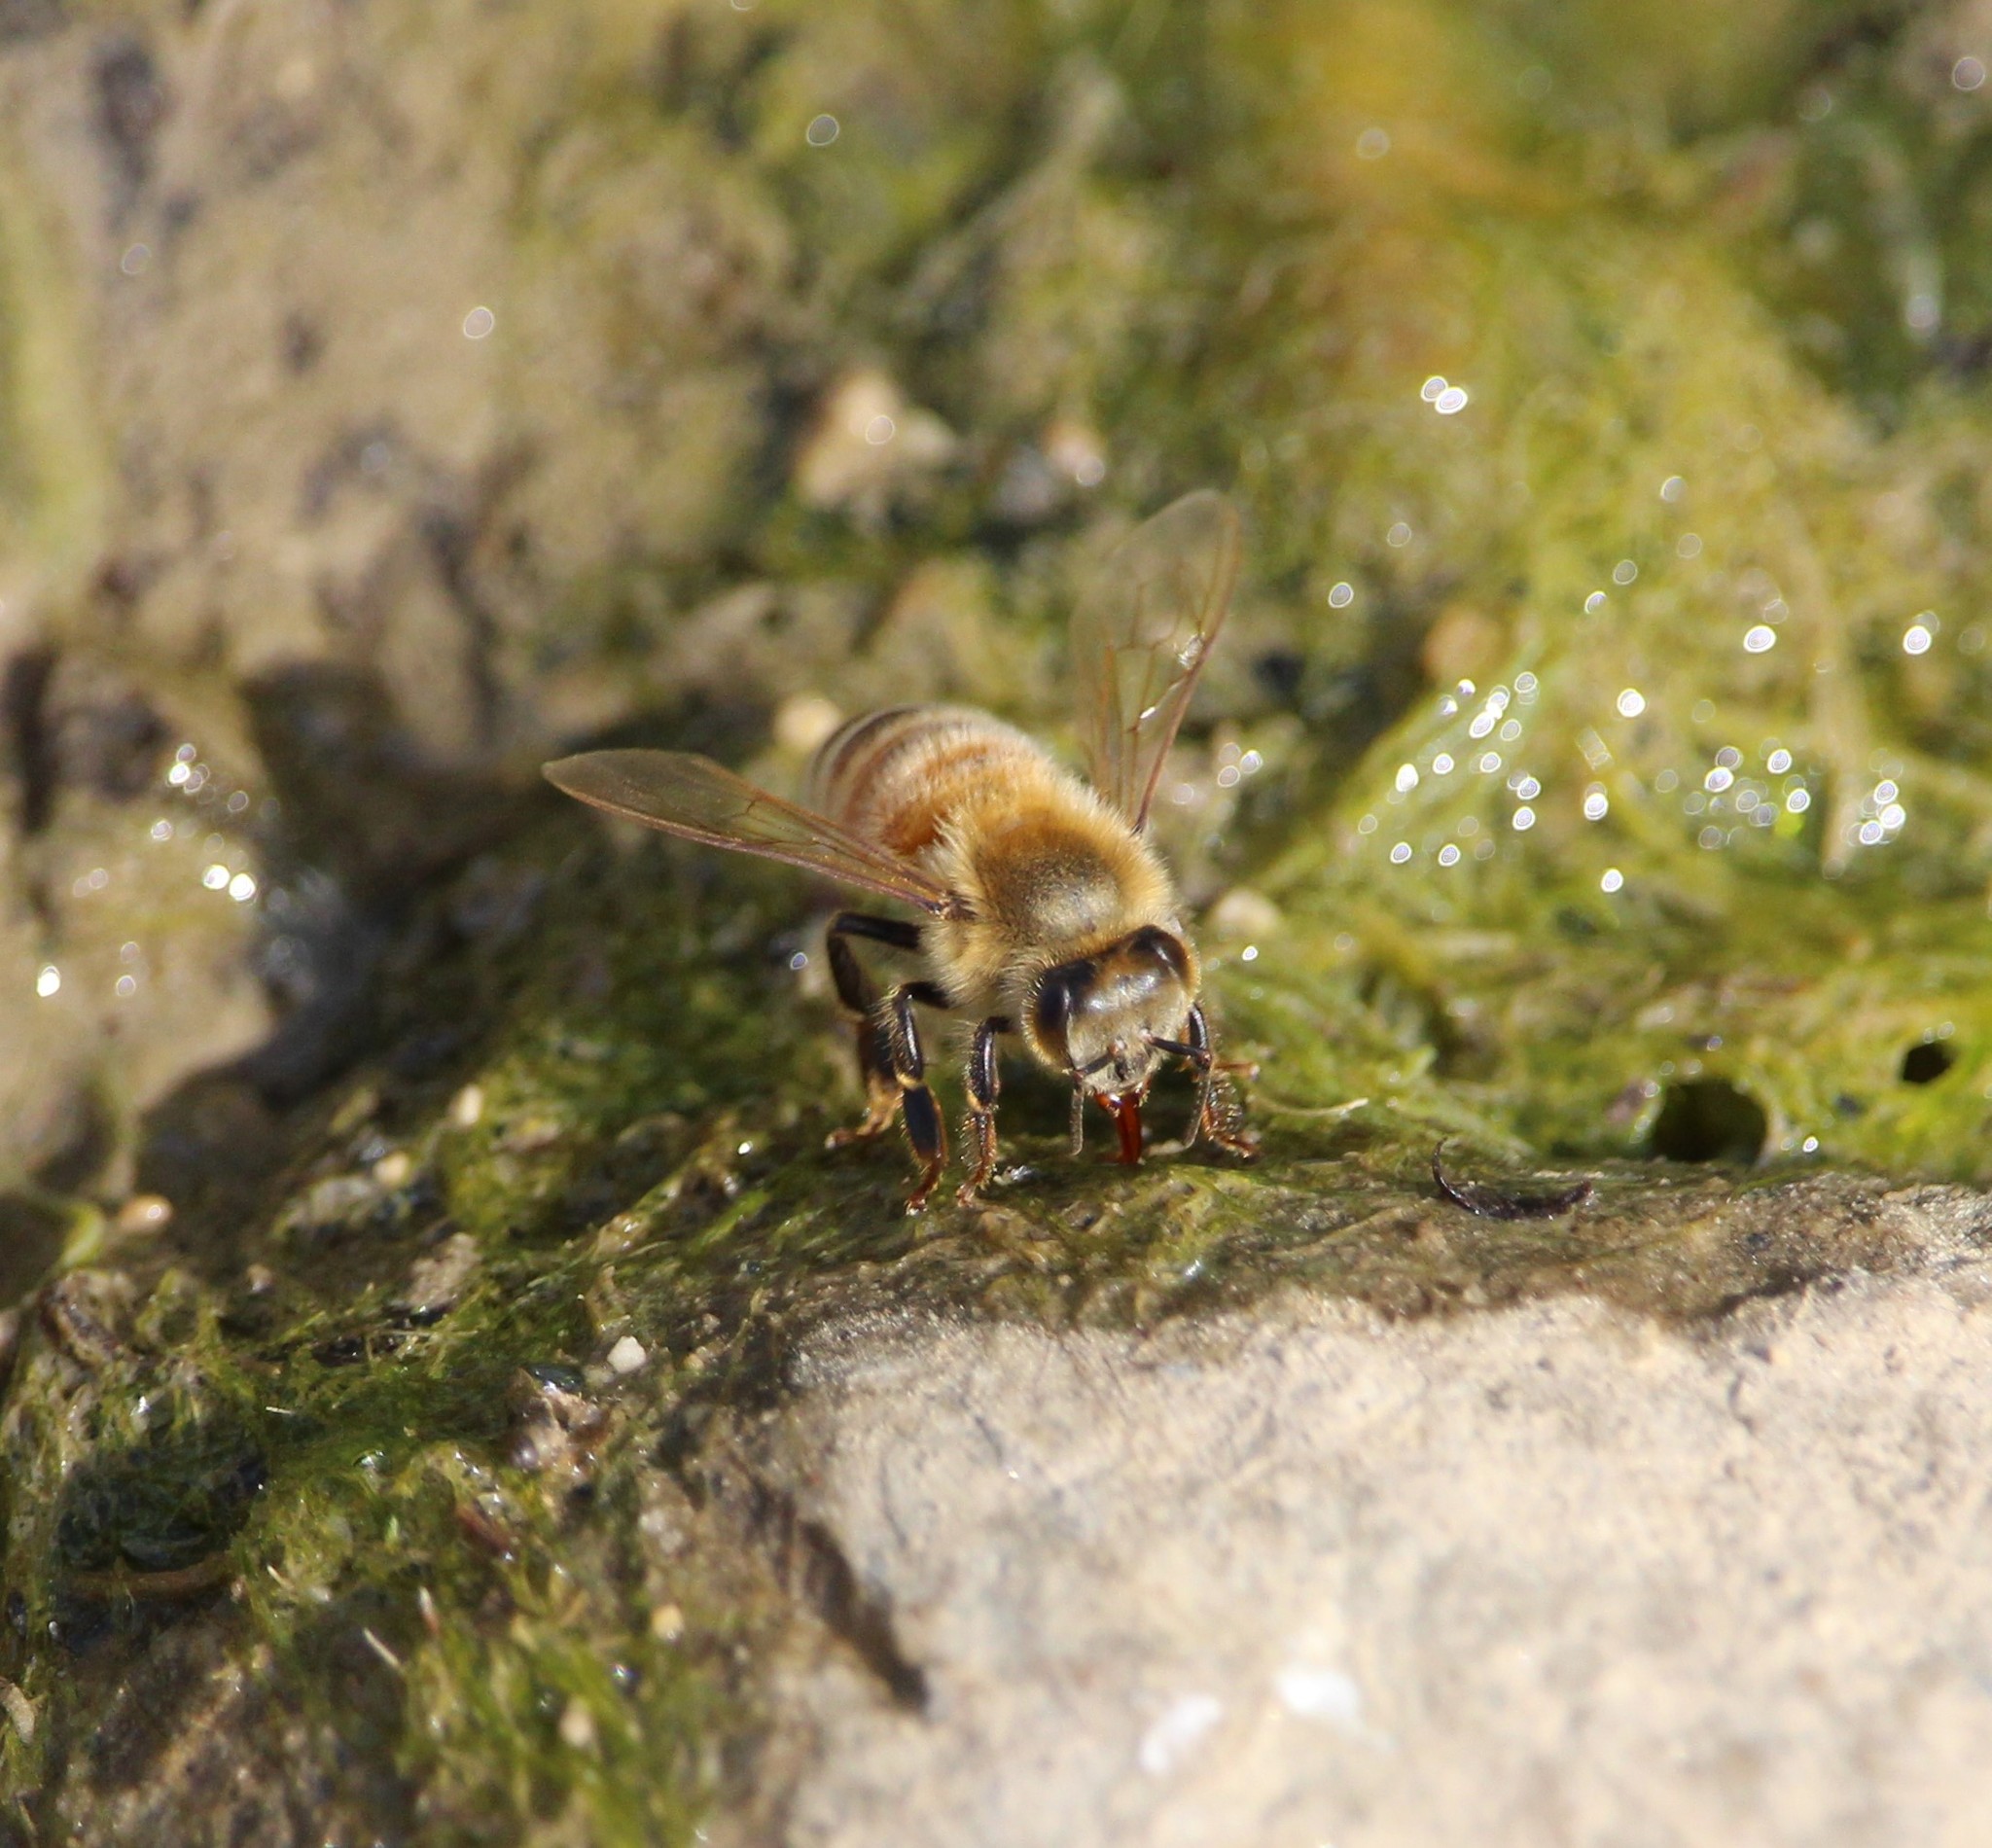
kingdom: Animalia
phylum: Arthropoda
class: Insecta
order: Hymenoptera
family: Apidae
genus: Apis
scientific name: Apis mellifera
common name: Honey bee
